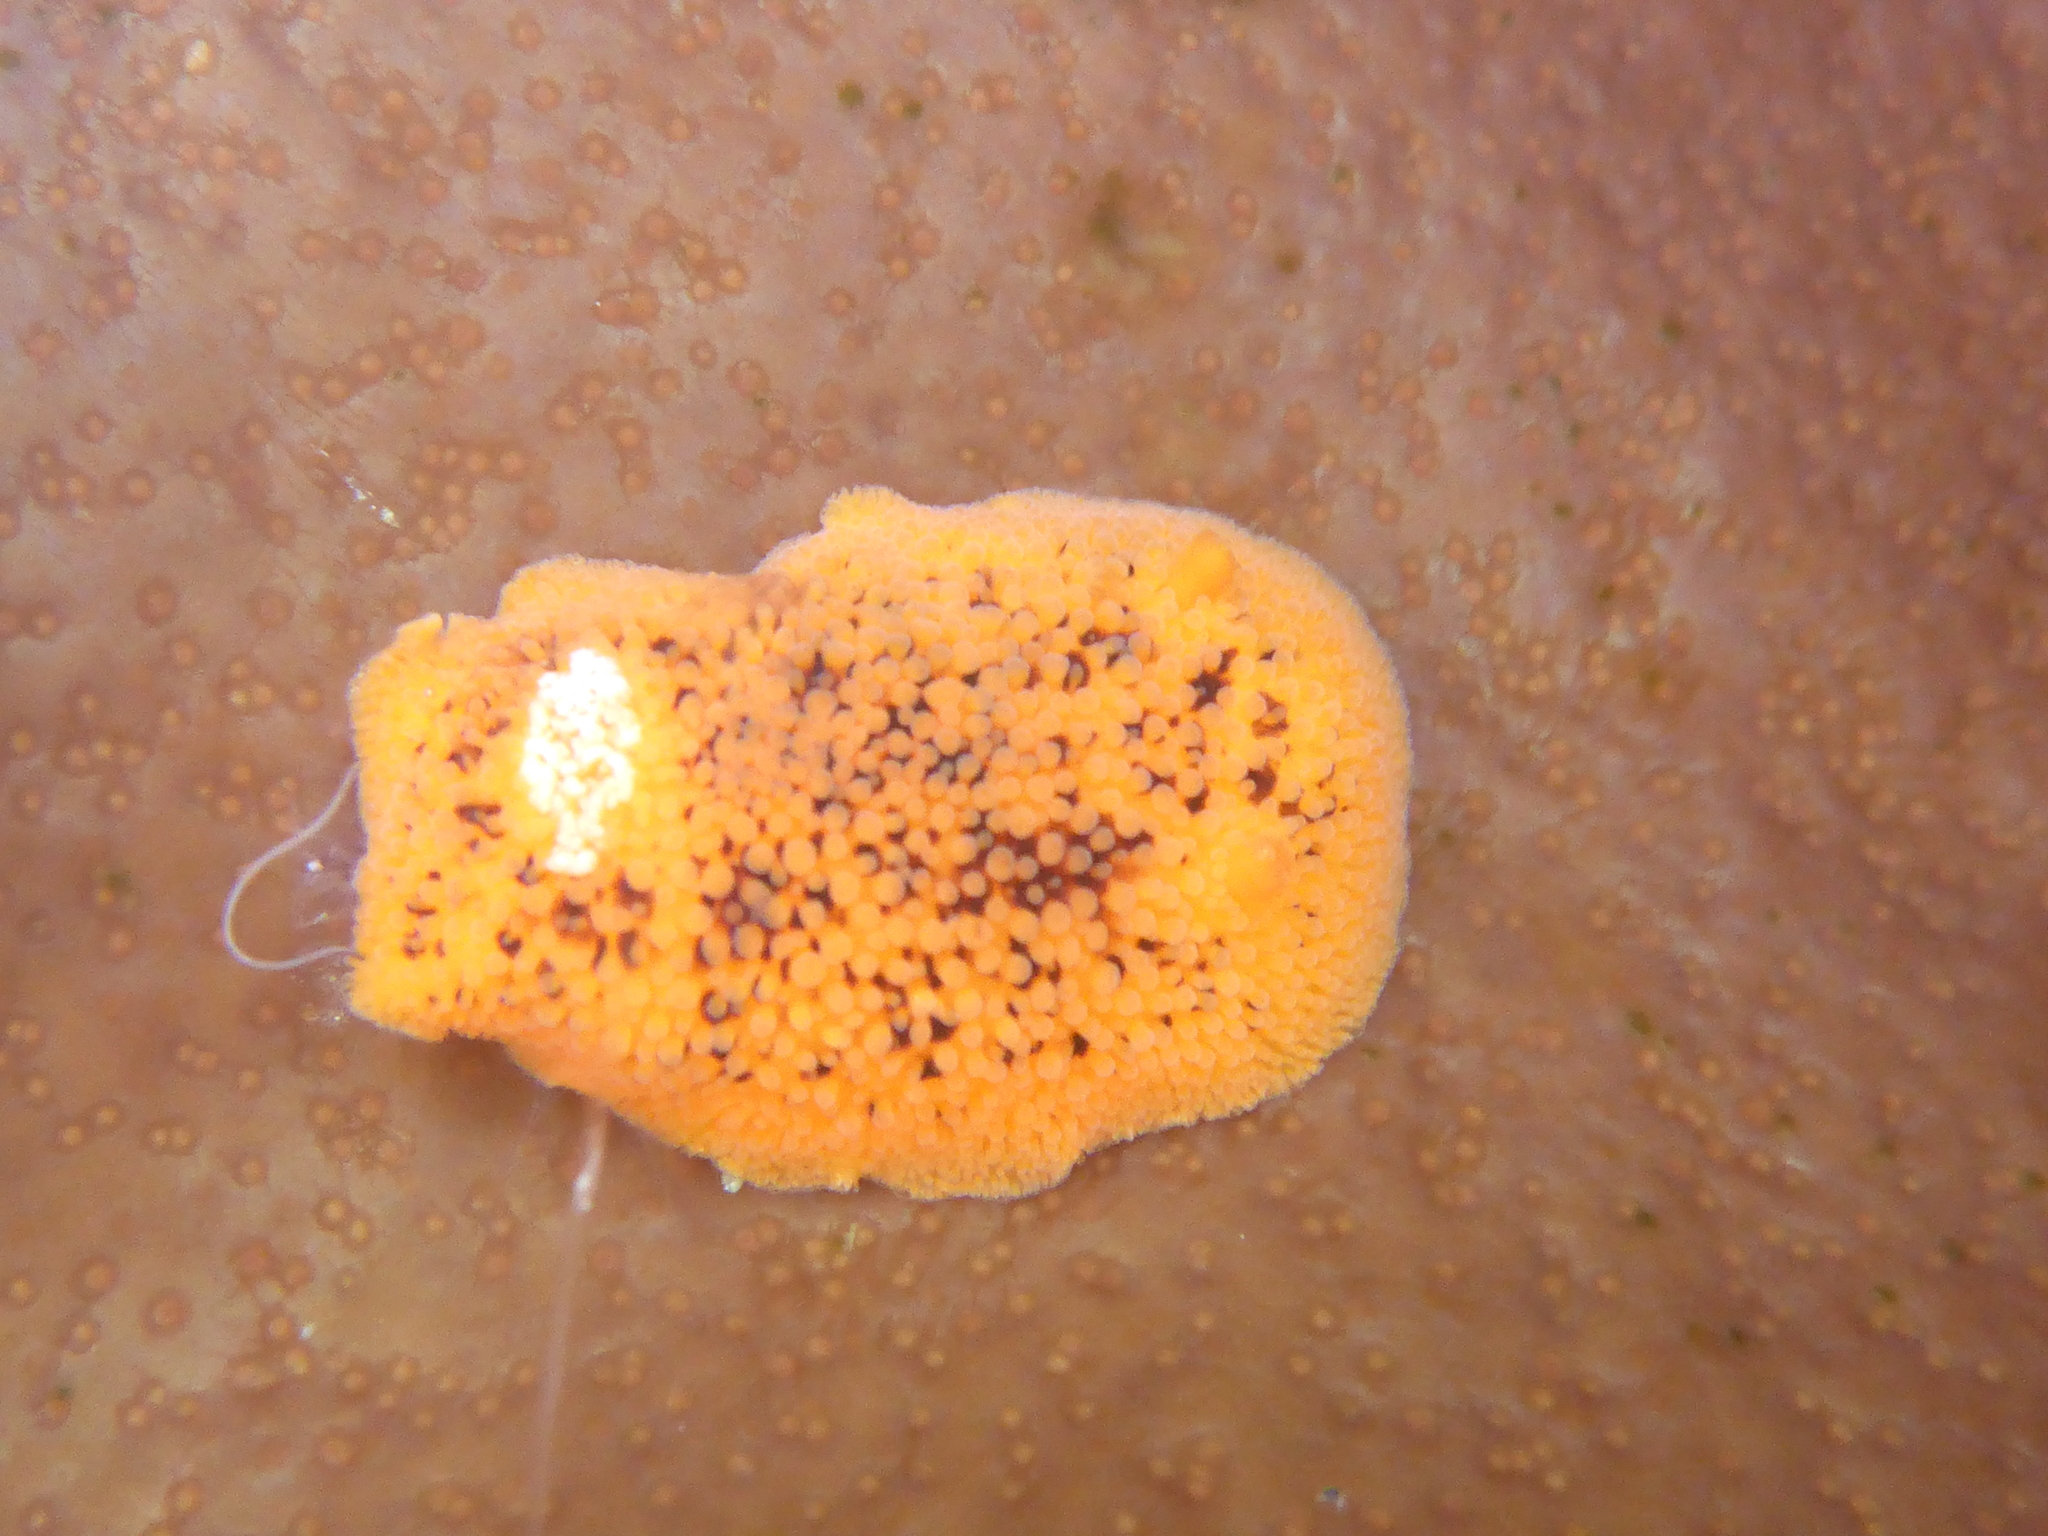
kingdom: Animalia
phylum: Mollusca
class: Gastropoda
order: Nudibranchia
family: Discodorididae
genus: Peltodoris
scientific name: Peltodoris nobilis
